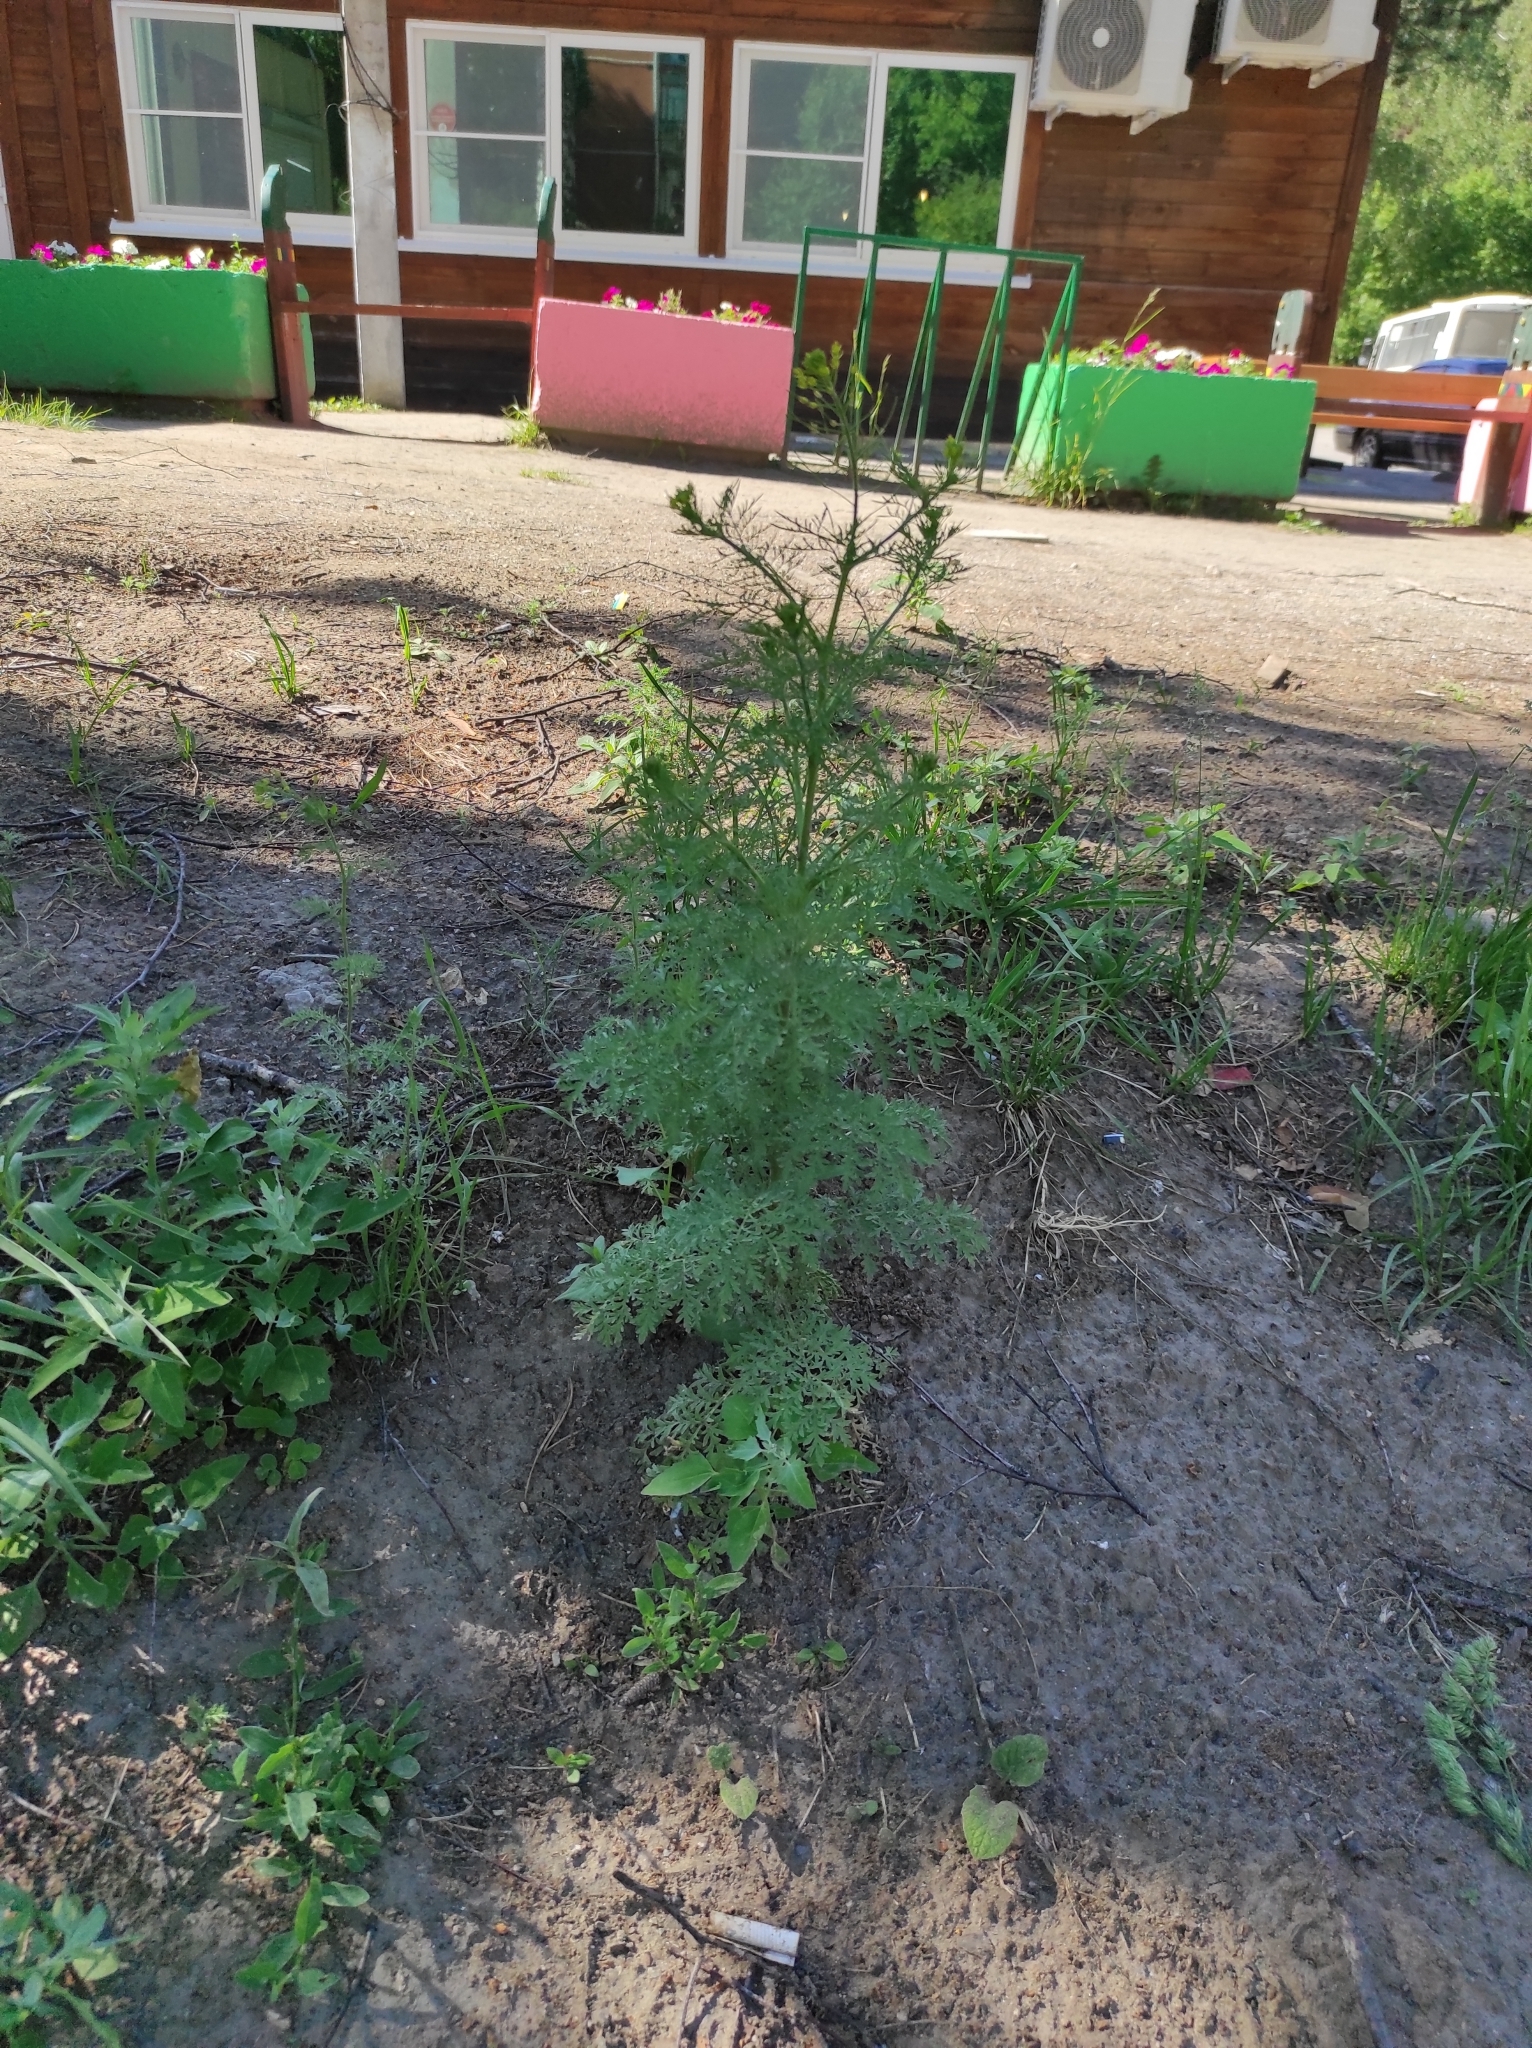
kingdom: Plantae
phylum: Tracheophyta
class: Magnoliopsida
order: Brassicales
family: Brassicaceae
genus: Descurainia
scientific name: Descurainia sophia
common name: Flixweed
